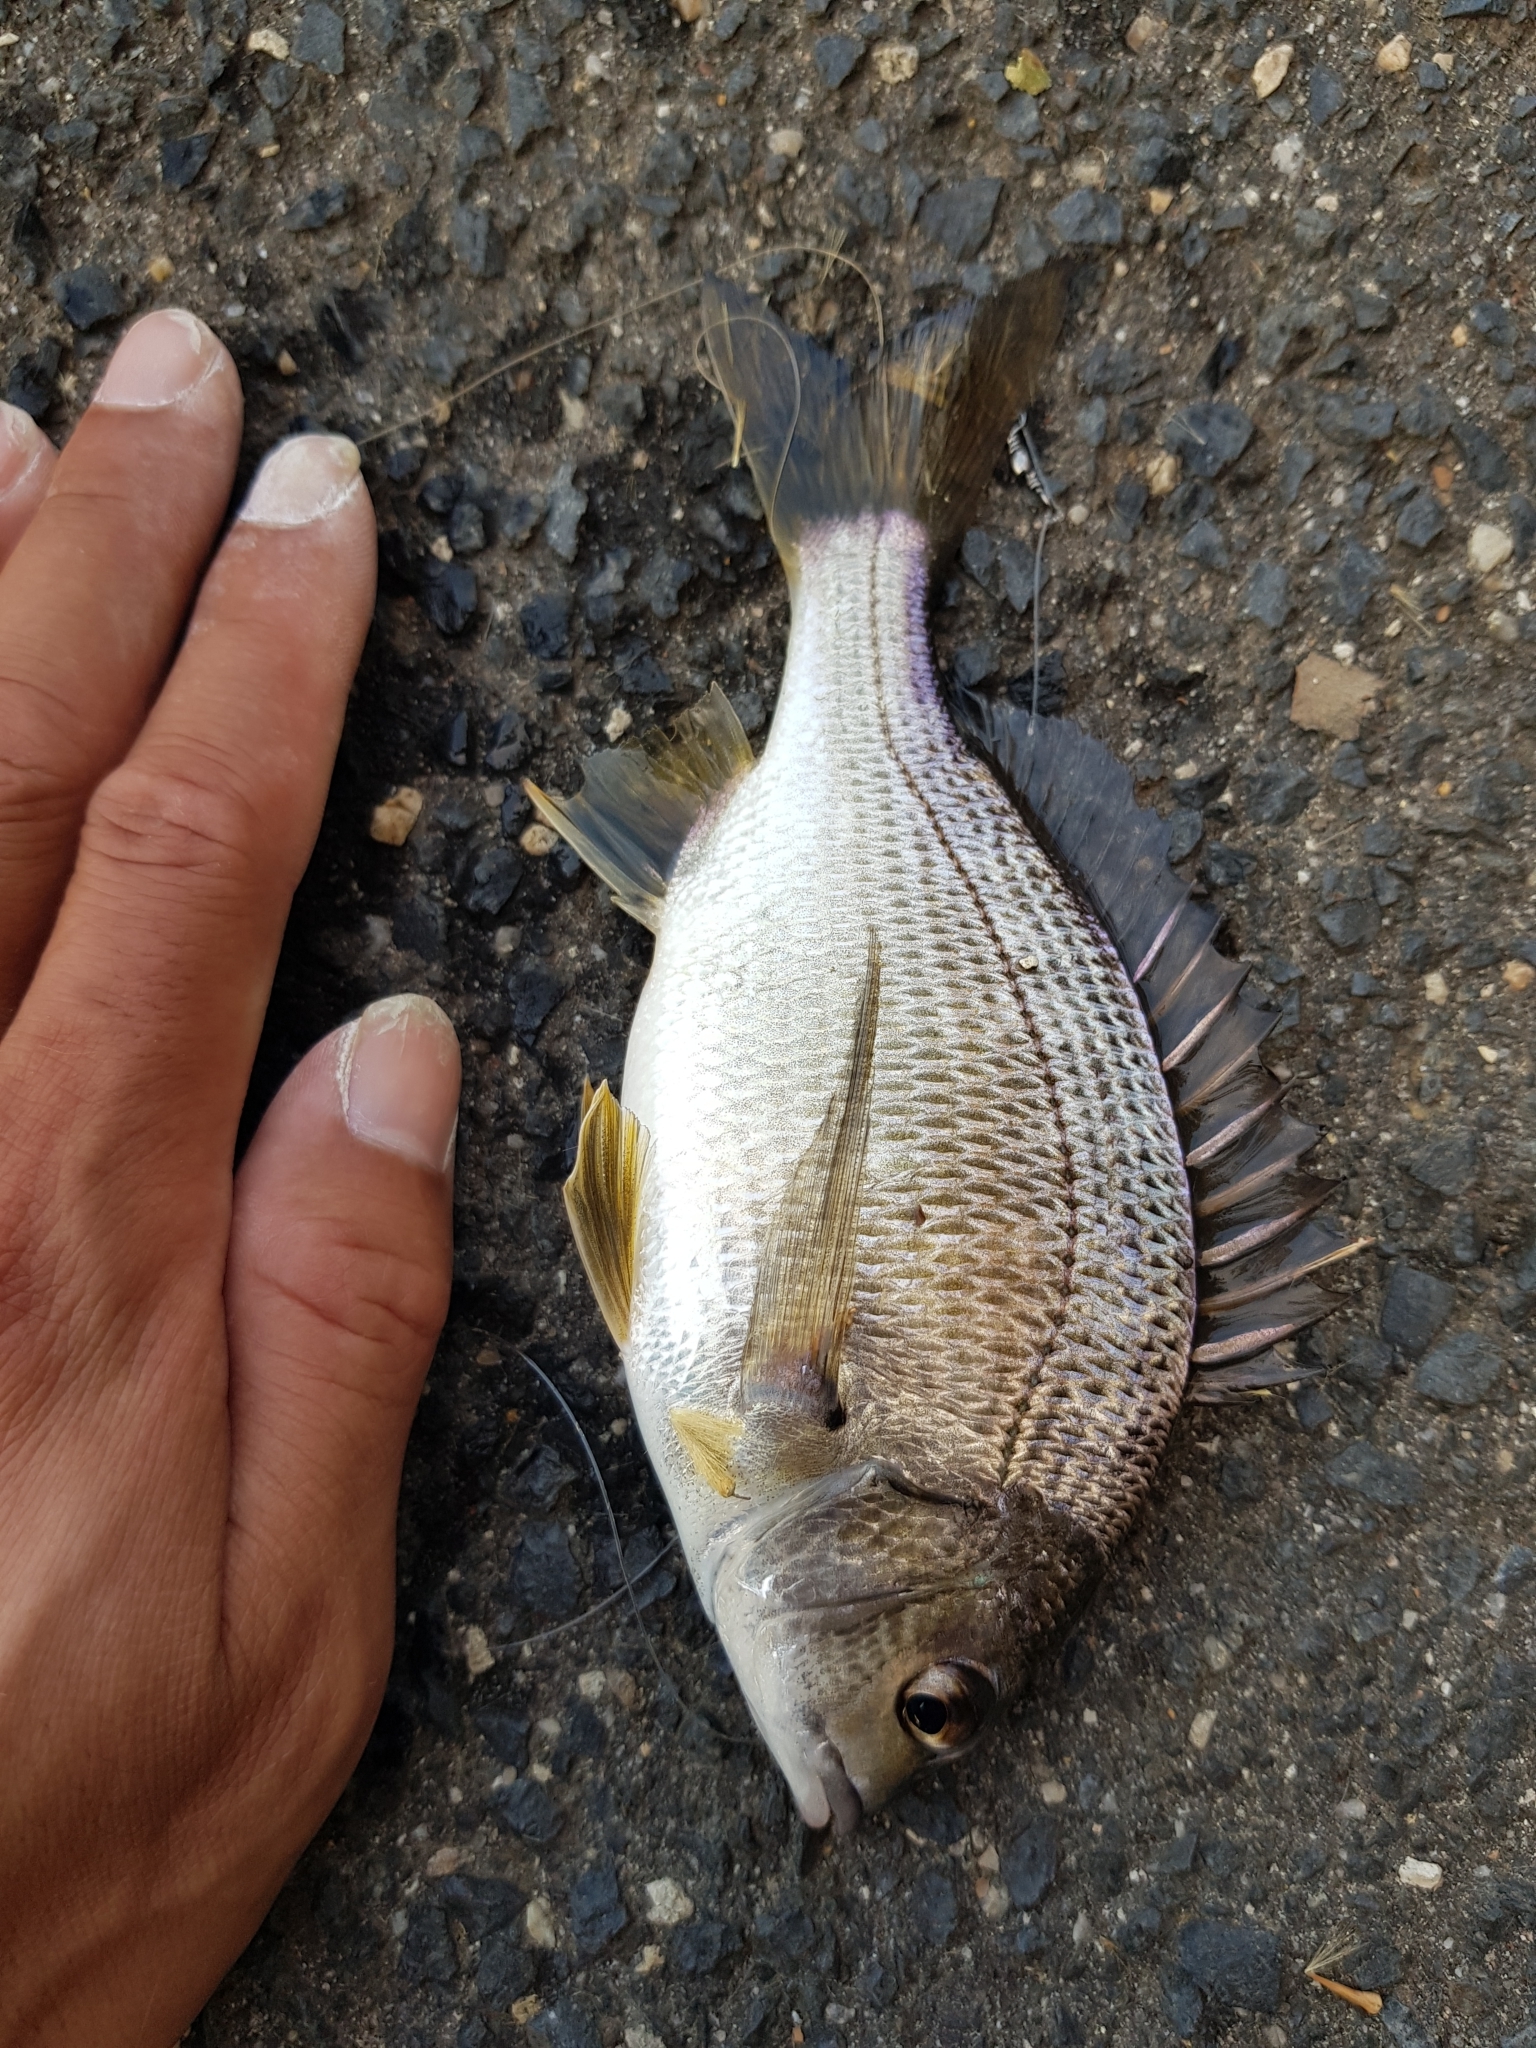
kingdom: Animalia
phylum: Chordata
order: Perciformes
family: Sparidae
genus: Acanthopagrus
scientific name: Acanthopagrus butcheri
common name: Black bream
